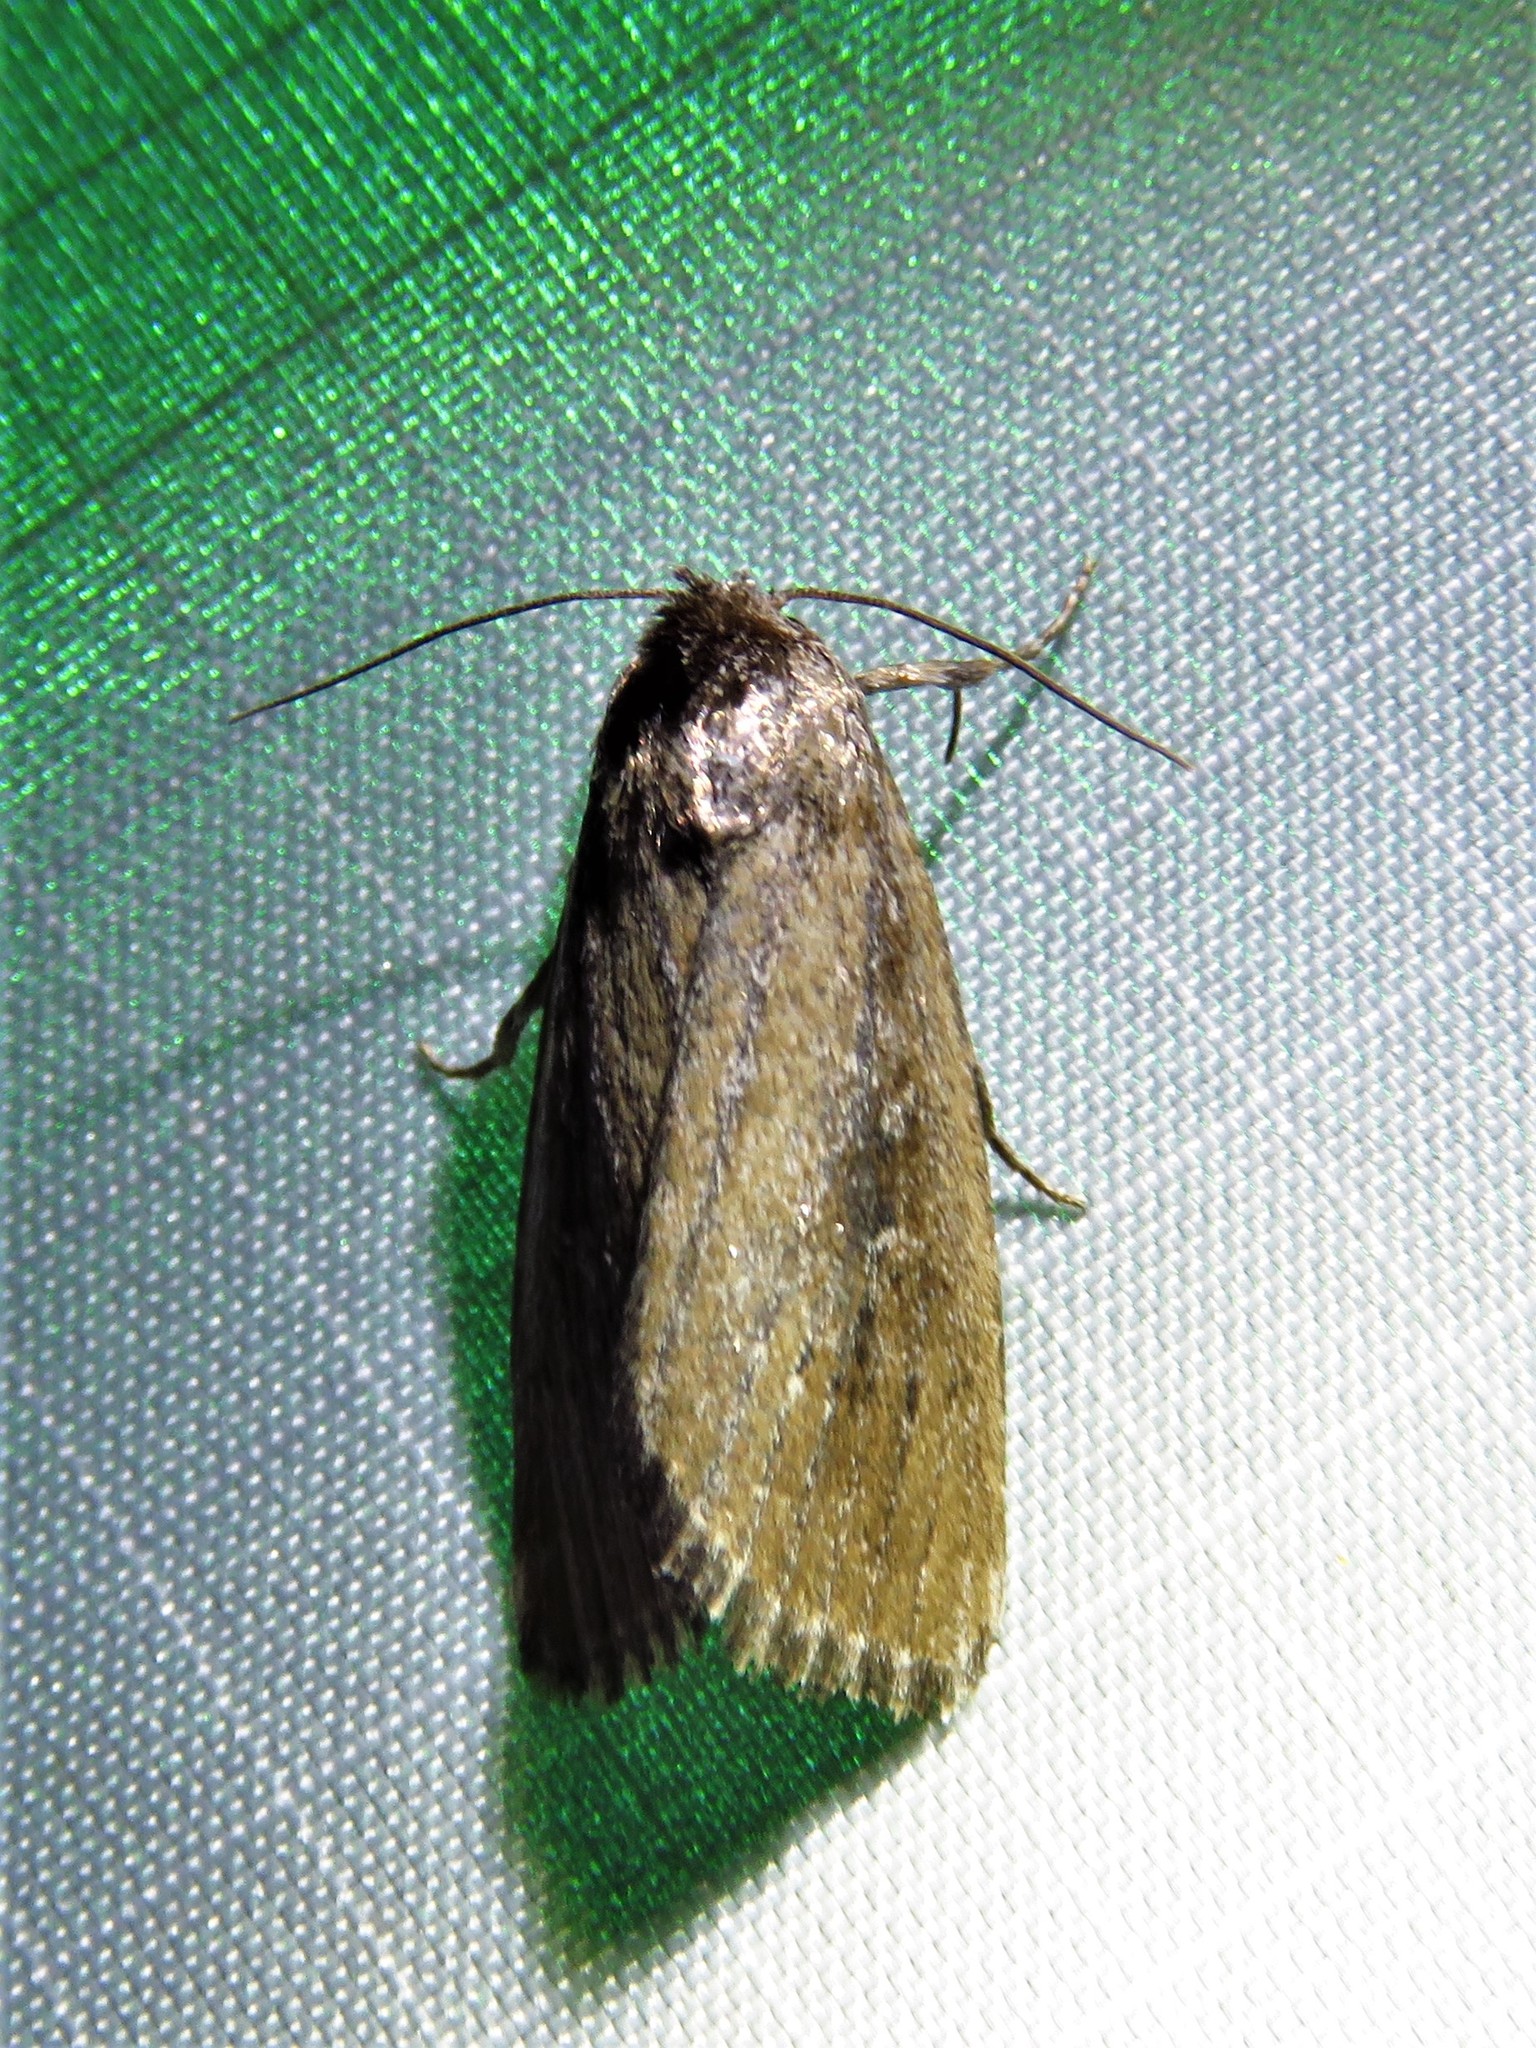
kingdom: Animalia
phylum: Arthropoda
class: Insecta
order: Lepidoptera
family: Noctuidae
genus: Condica
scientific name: Condica videns
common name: White-dotted groundling
